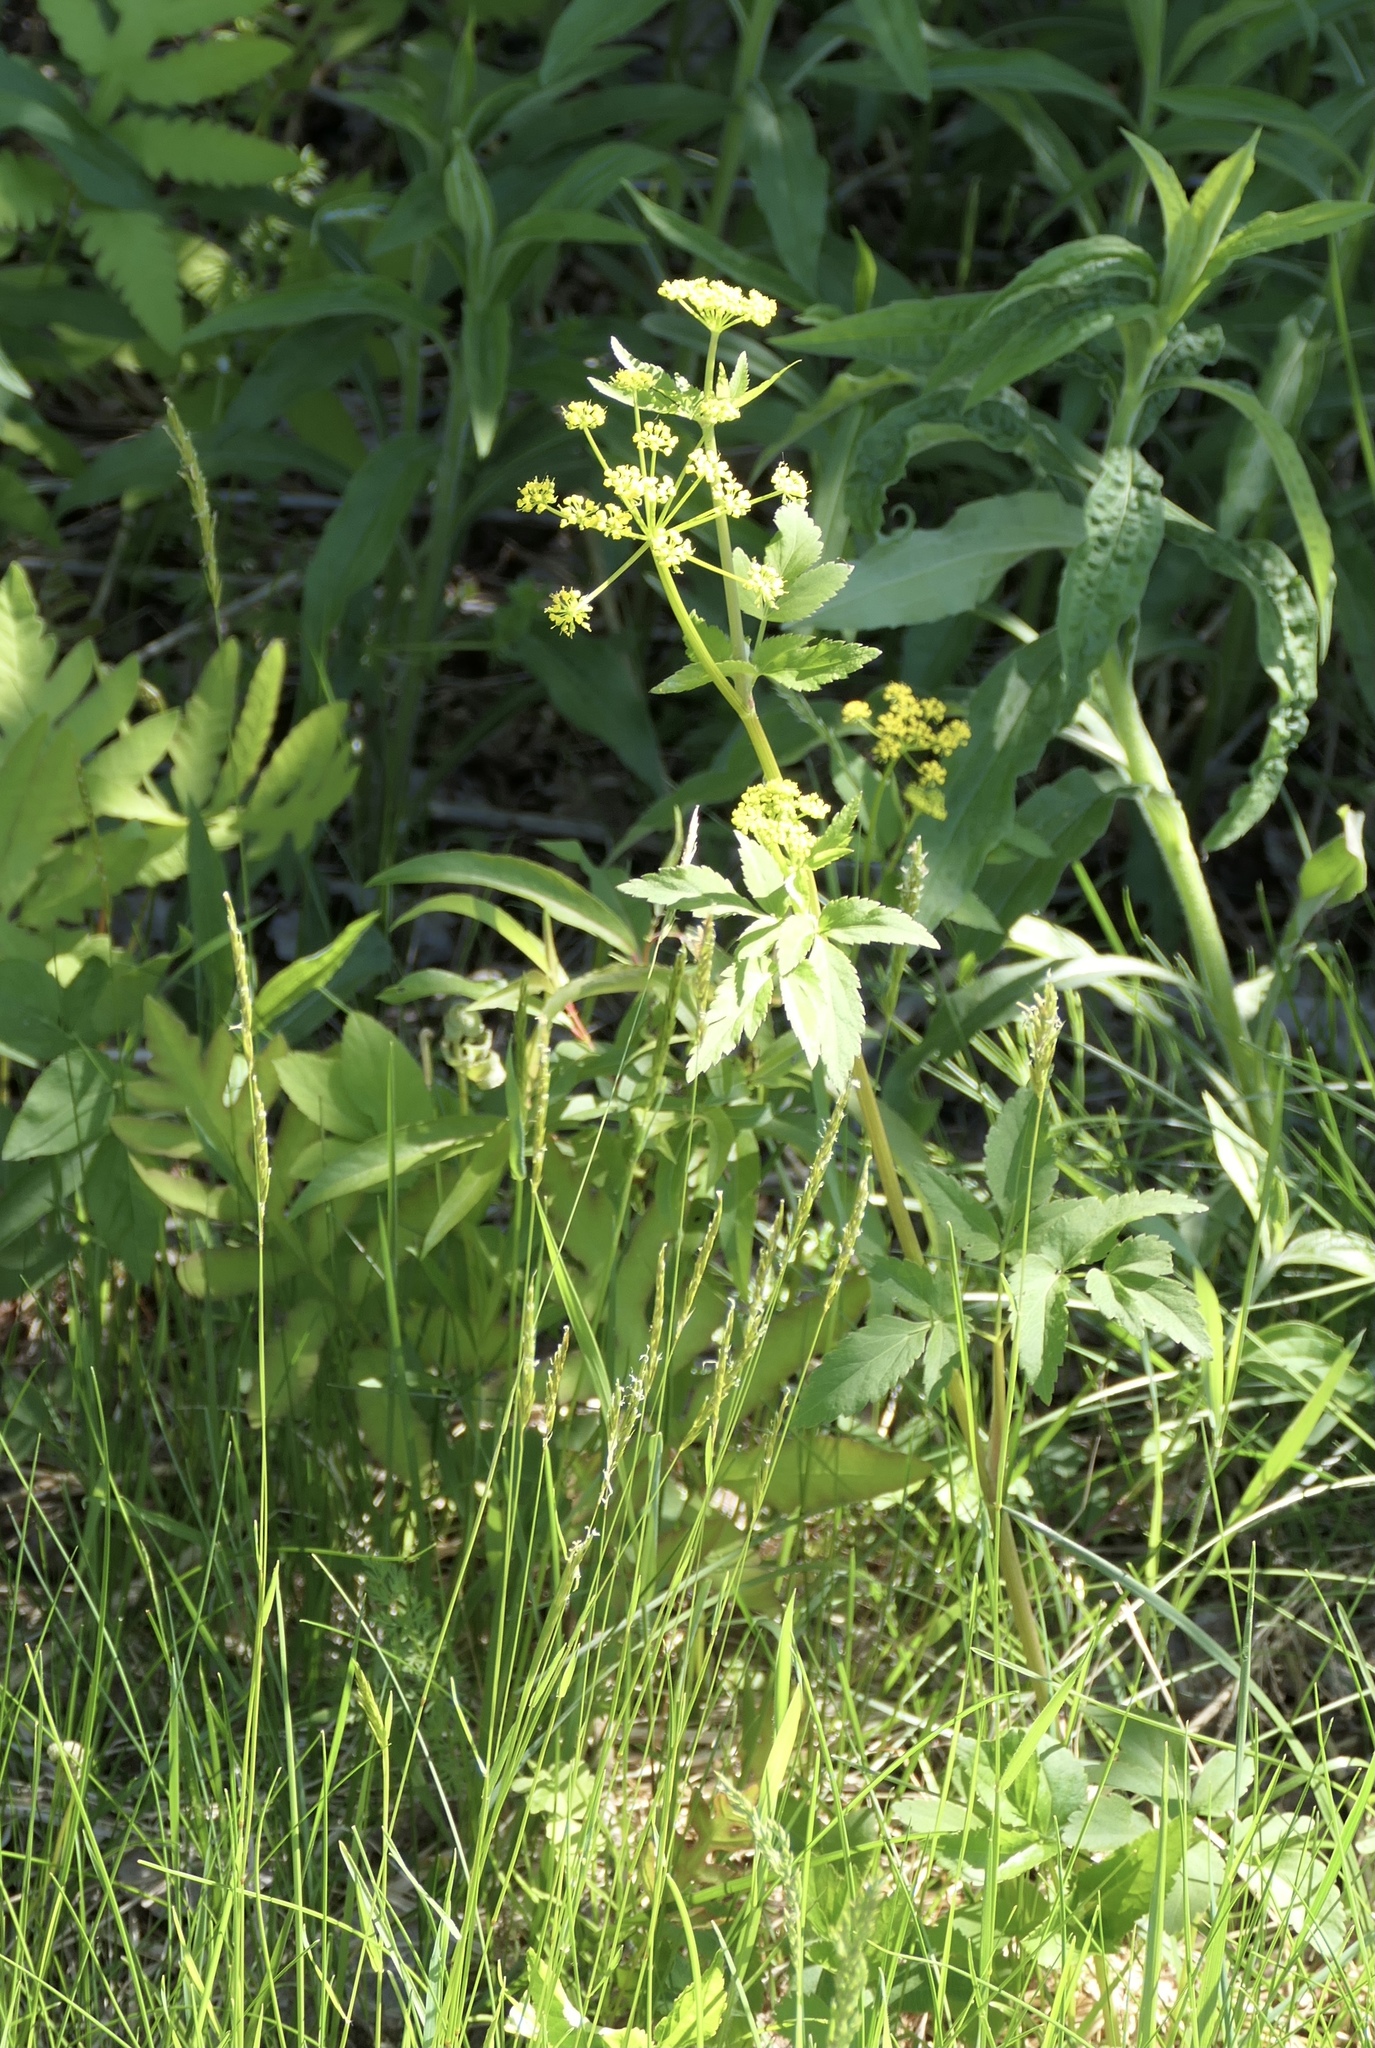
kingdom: Plantae
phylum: Tracheophyta
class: Magnoliopsida
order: Apiales
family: Apiaceae
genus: Zizia
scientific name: Zizia aurea
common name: Golden alexanders
